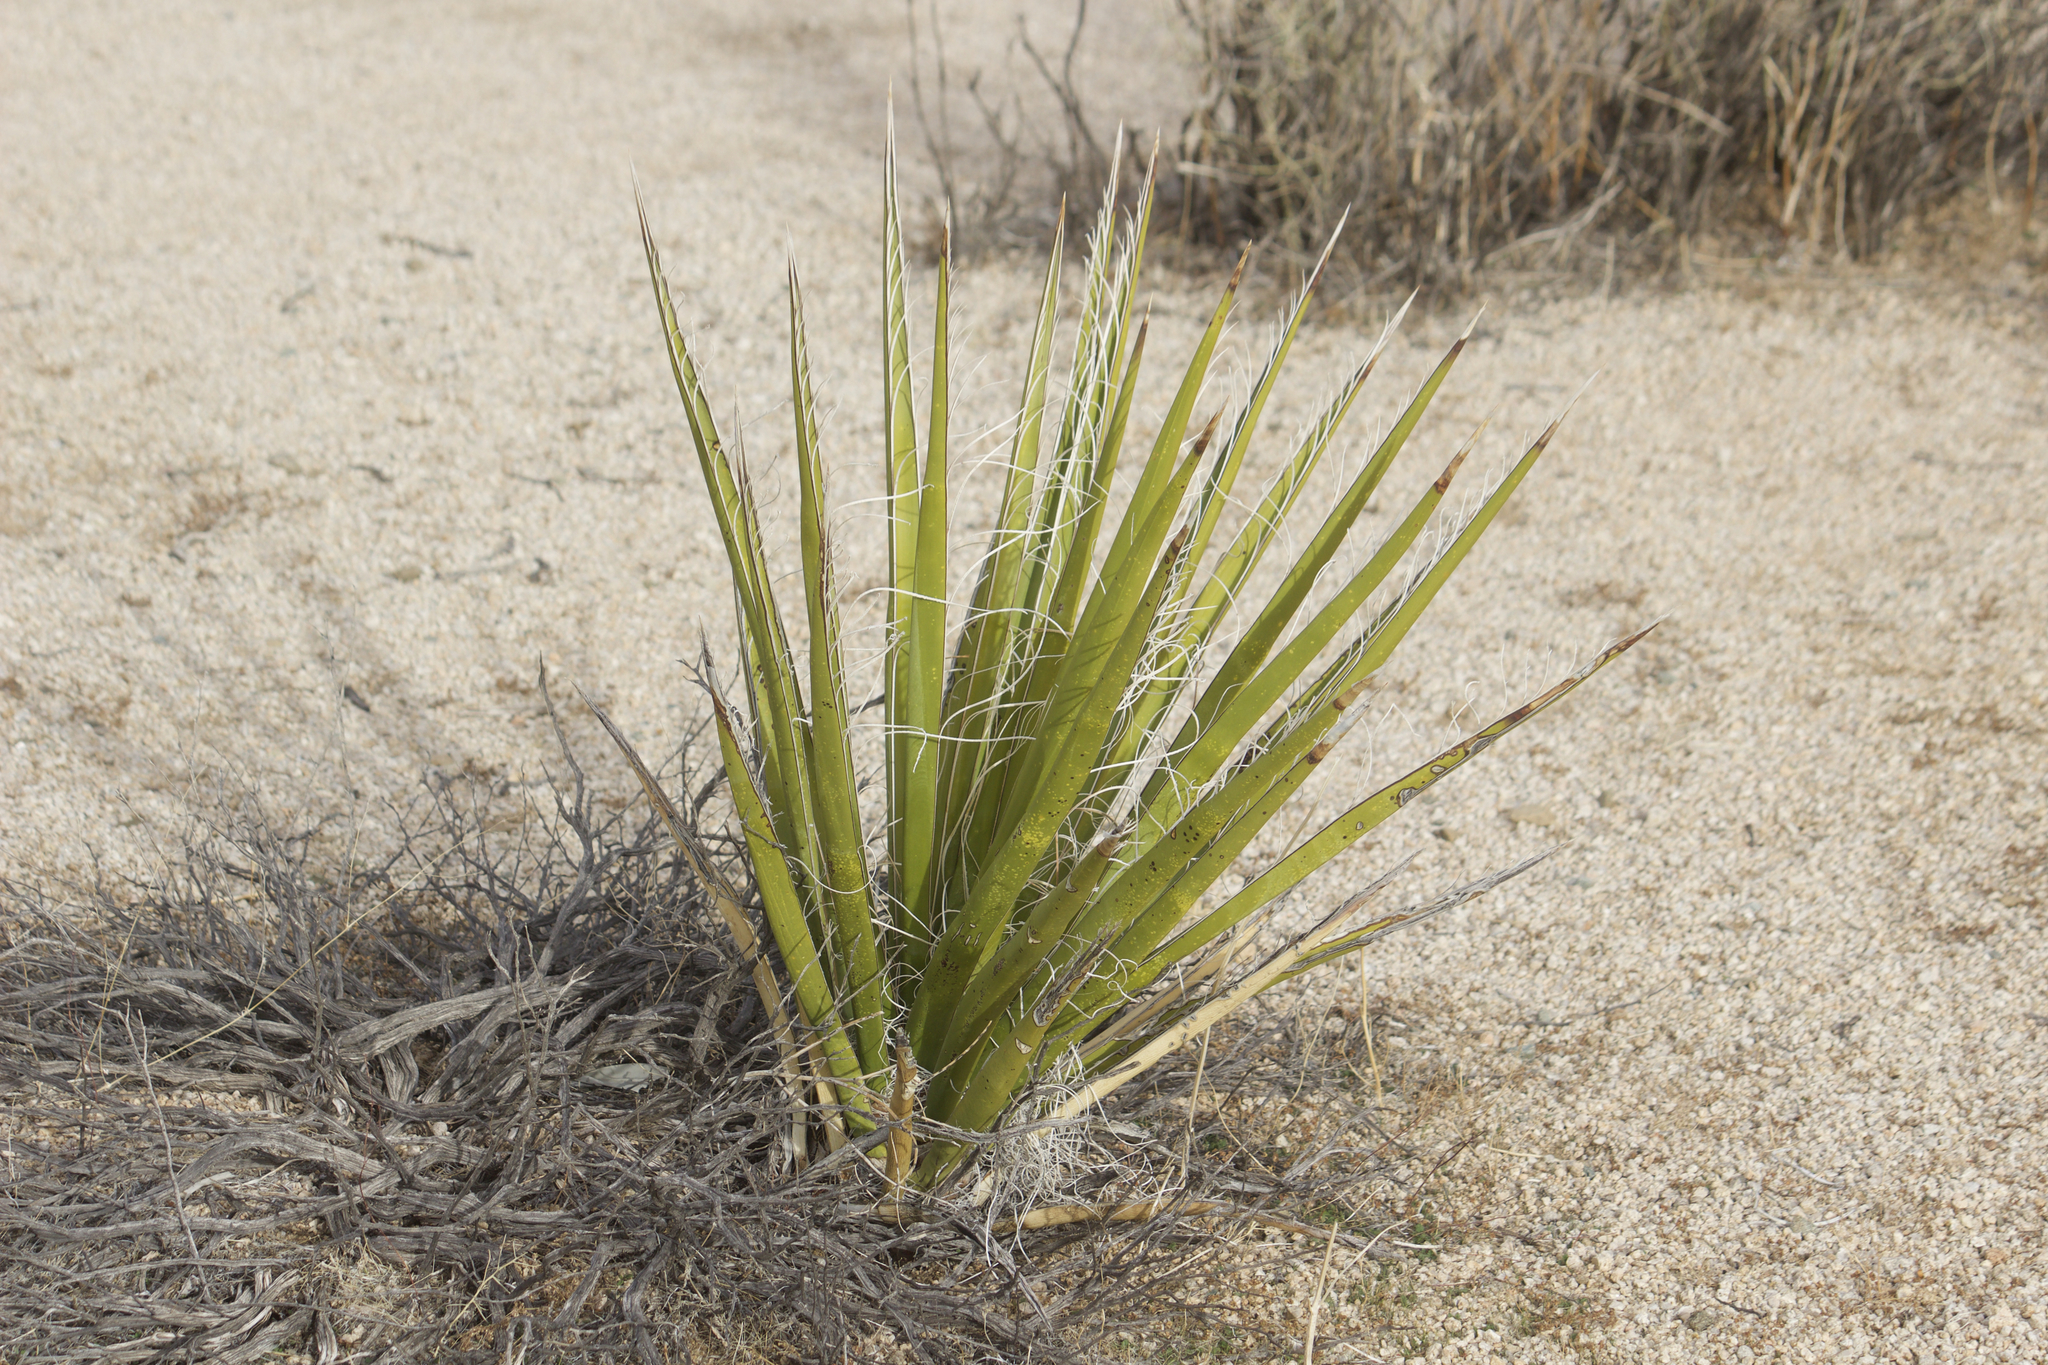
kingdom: Plantae
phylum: Tracheophyta
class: Liliopsida
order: Asparagales
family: Asparagaceae
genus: Yucca
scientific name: Yucca schidigera
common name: Mojave yucca
